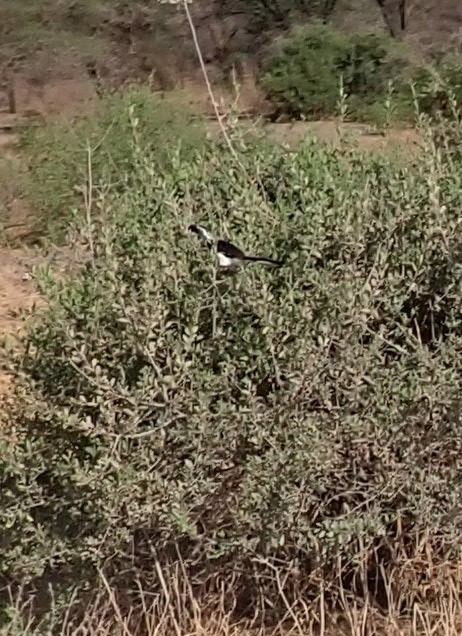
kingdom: Animalia
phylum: Chordata
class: Aves
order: Passeriformes
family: Laniidae
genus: Lanius
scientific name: Lanius cabanisi
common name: Long-tailed fiscal
